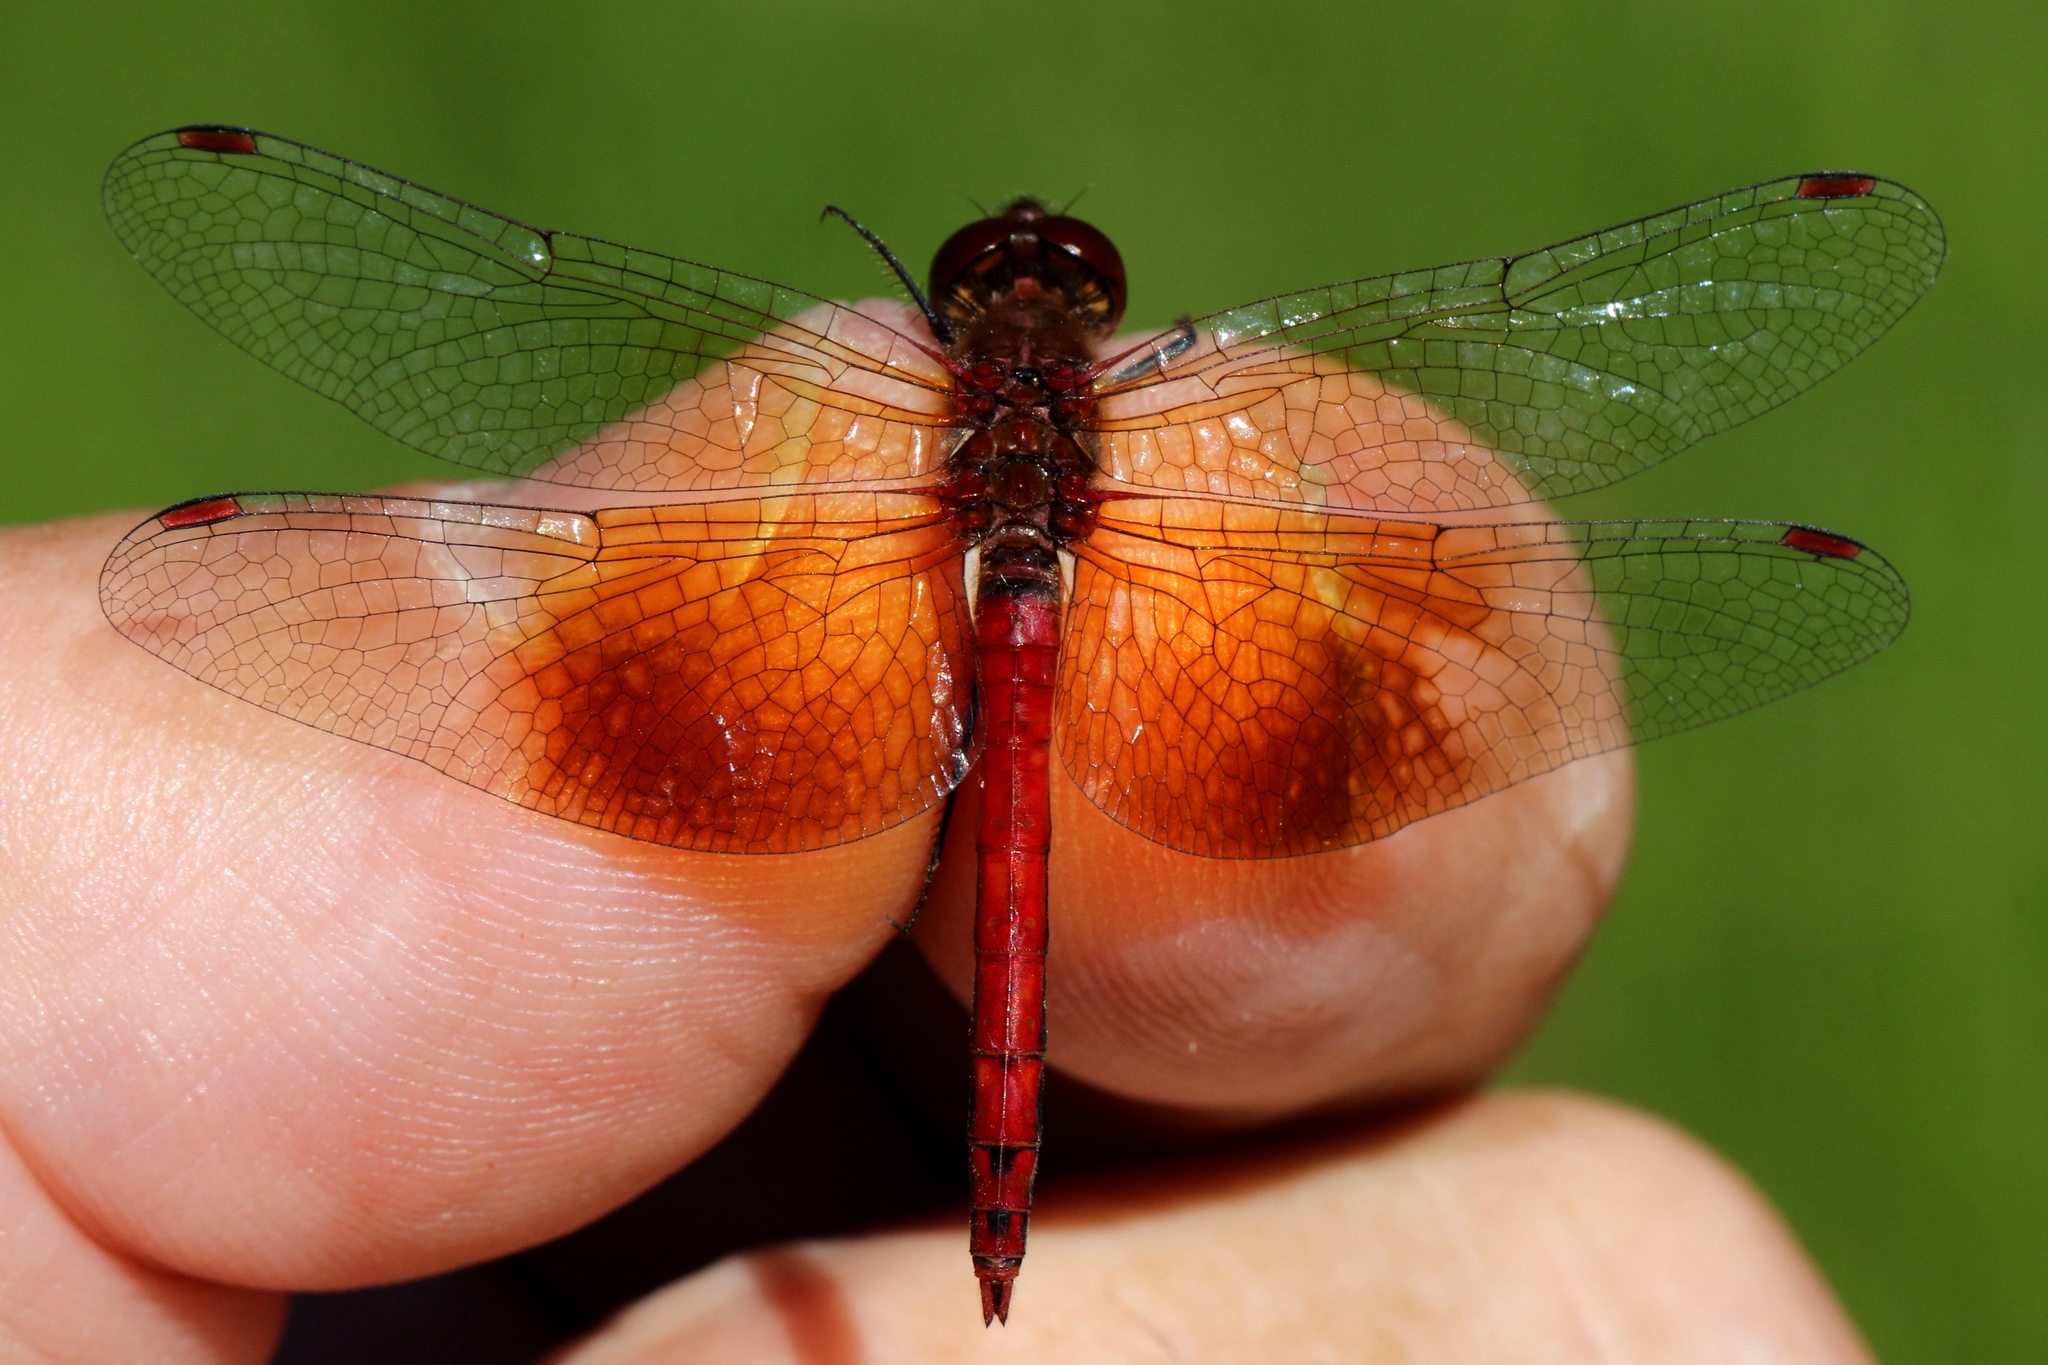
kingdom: Animalia
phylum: Arthropoda
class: Insecta
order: Odonata
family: Libellulidae
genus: Sympetrum
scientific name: Sympetrum semicinctum
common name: Band-winged meadowhawk
